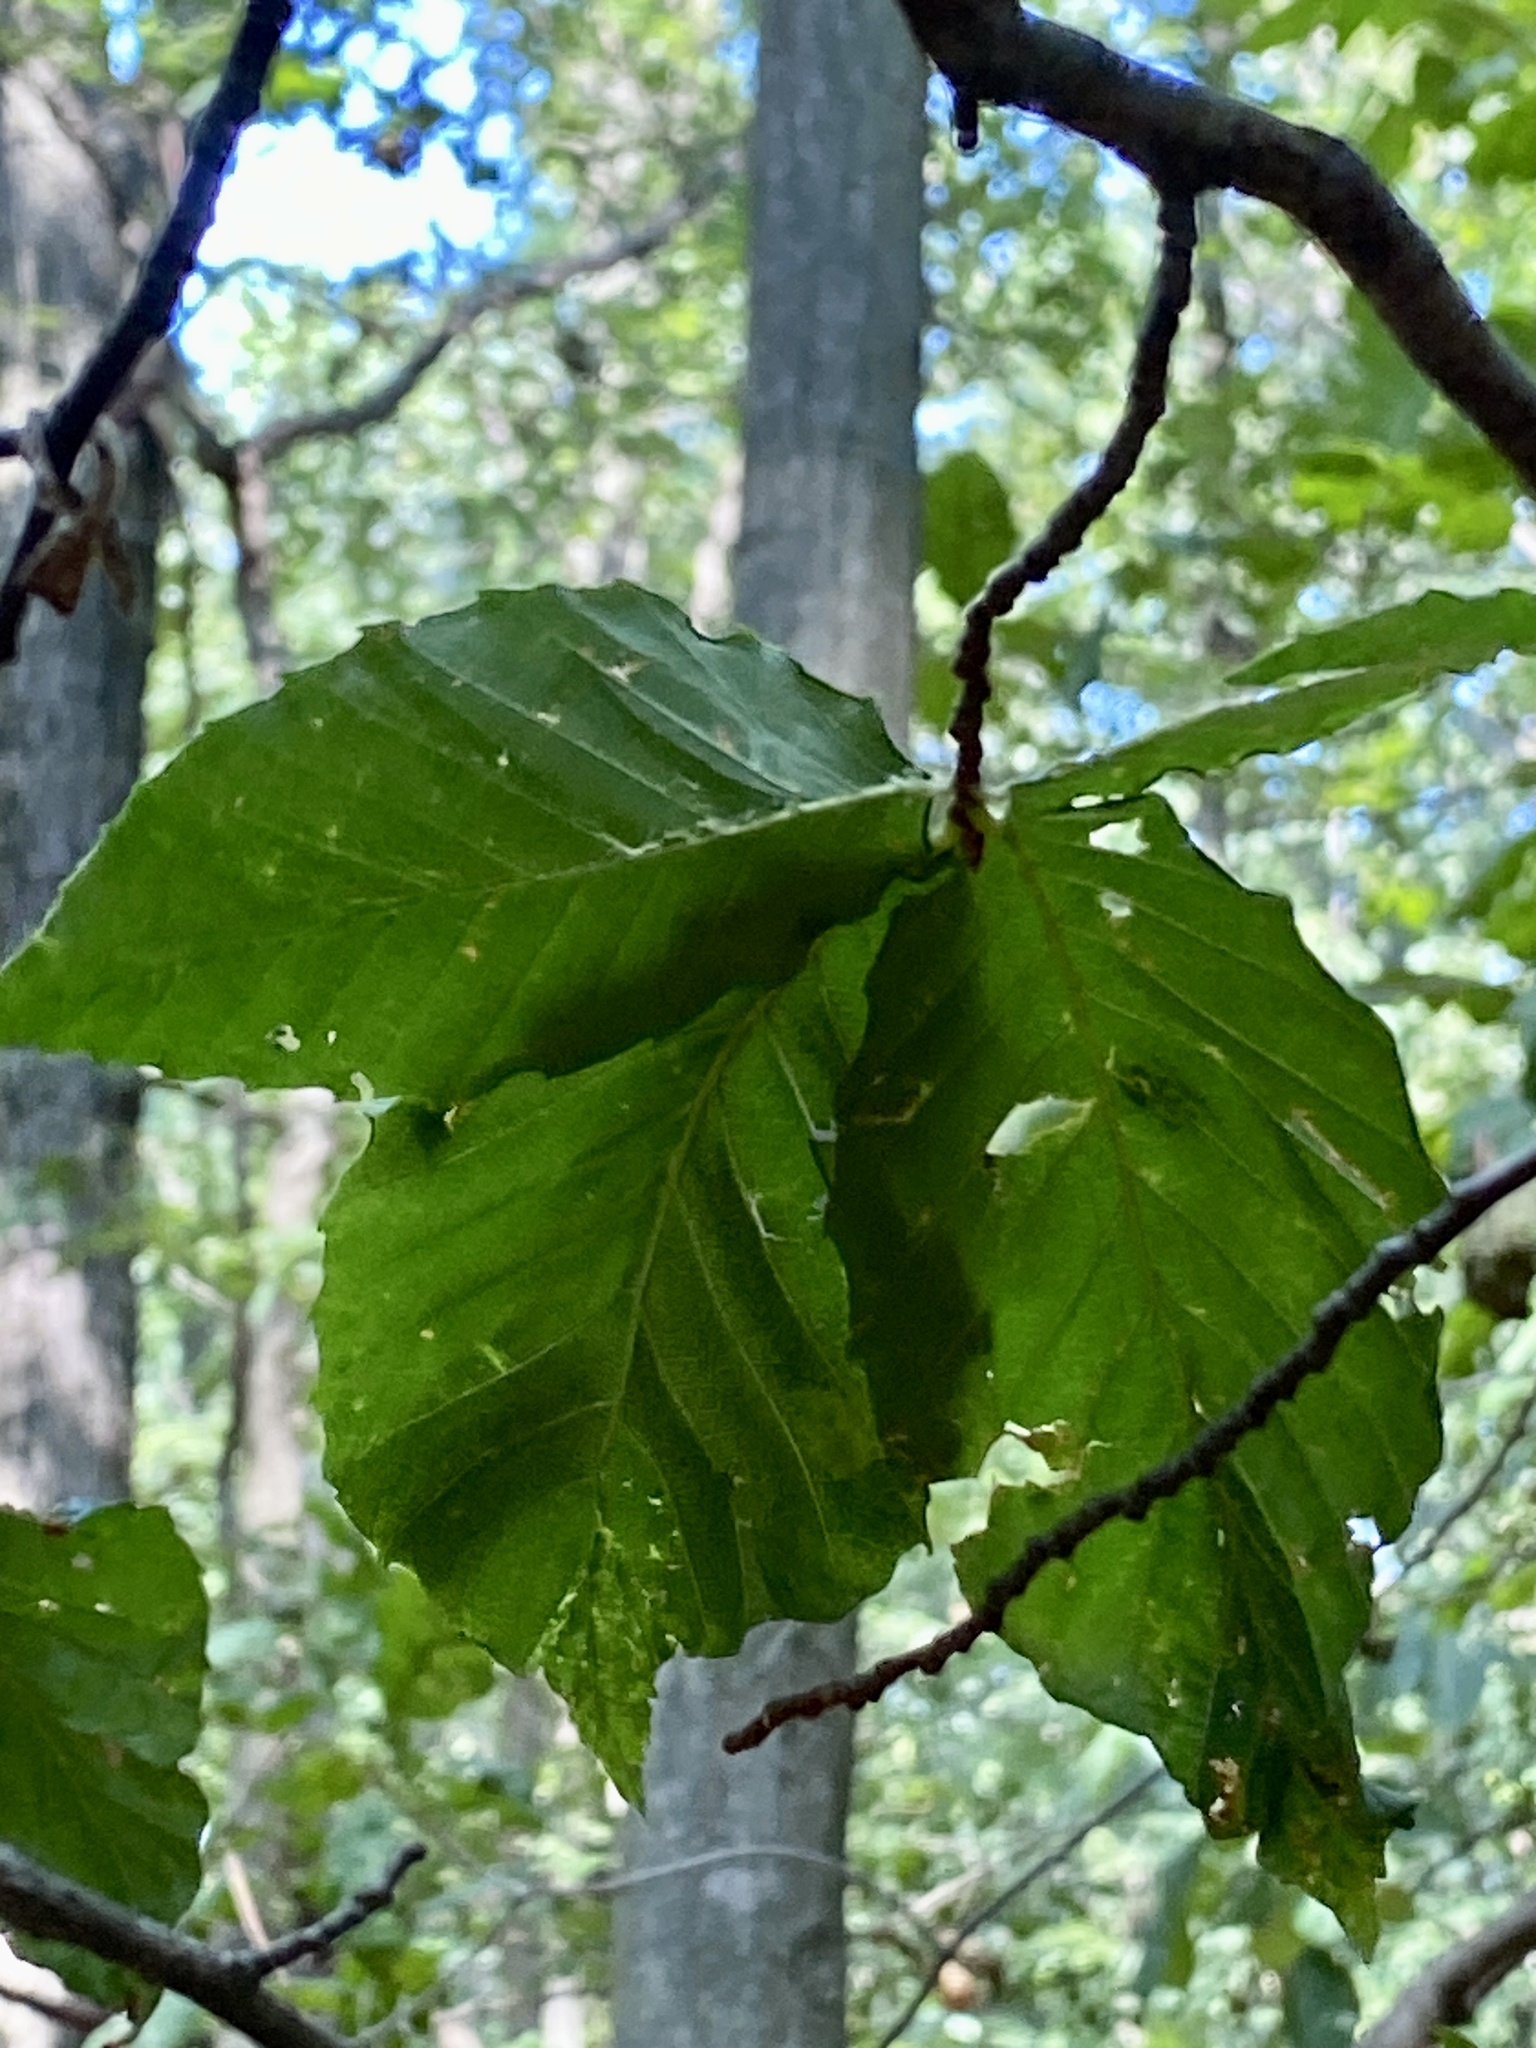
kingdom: Animalia
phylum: Nematoda
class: Chromadorea
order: Rhabditida
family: Anguinidae
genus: Litylenchus
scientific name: Litylenchus crenatae
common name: Beech leaf disease
